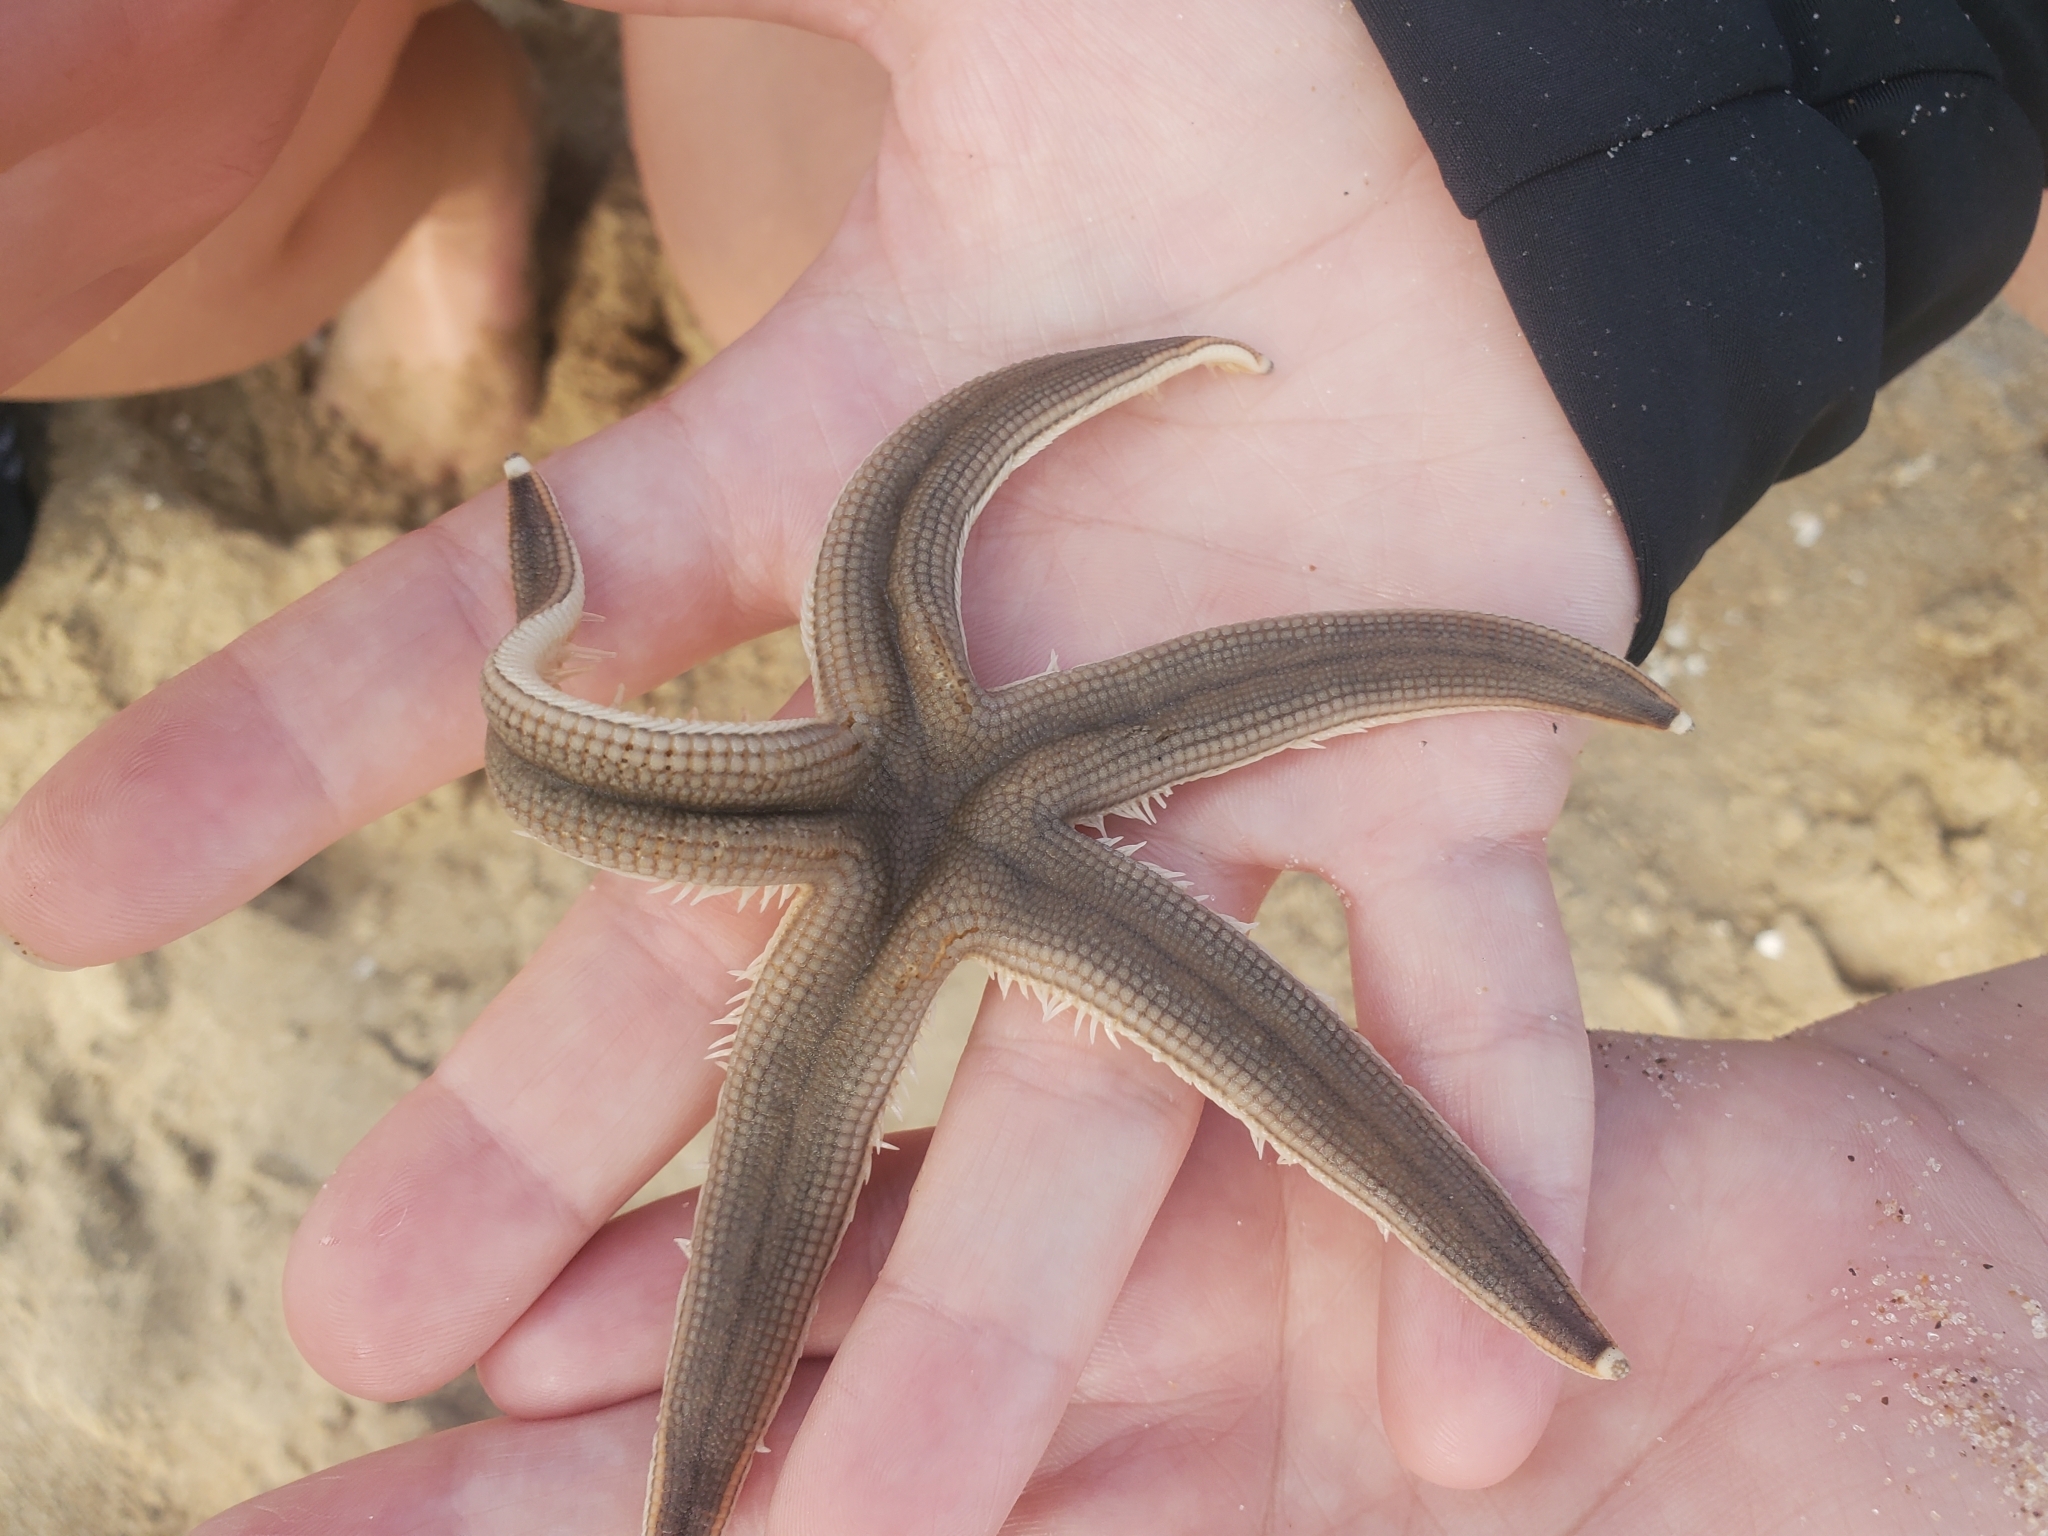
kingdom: Animalia
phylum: Echinodermata
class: Asteroidea
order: Paxillosida
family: Luidiidae
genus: Luidia
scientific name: Luidia clathrata
